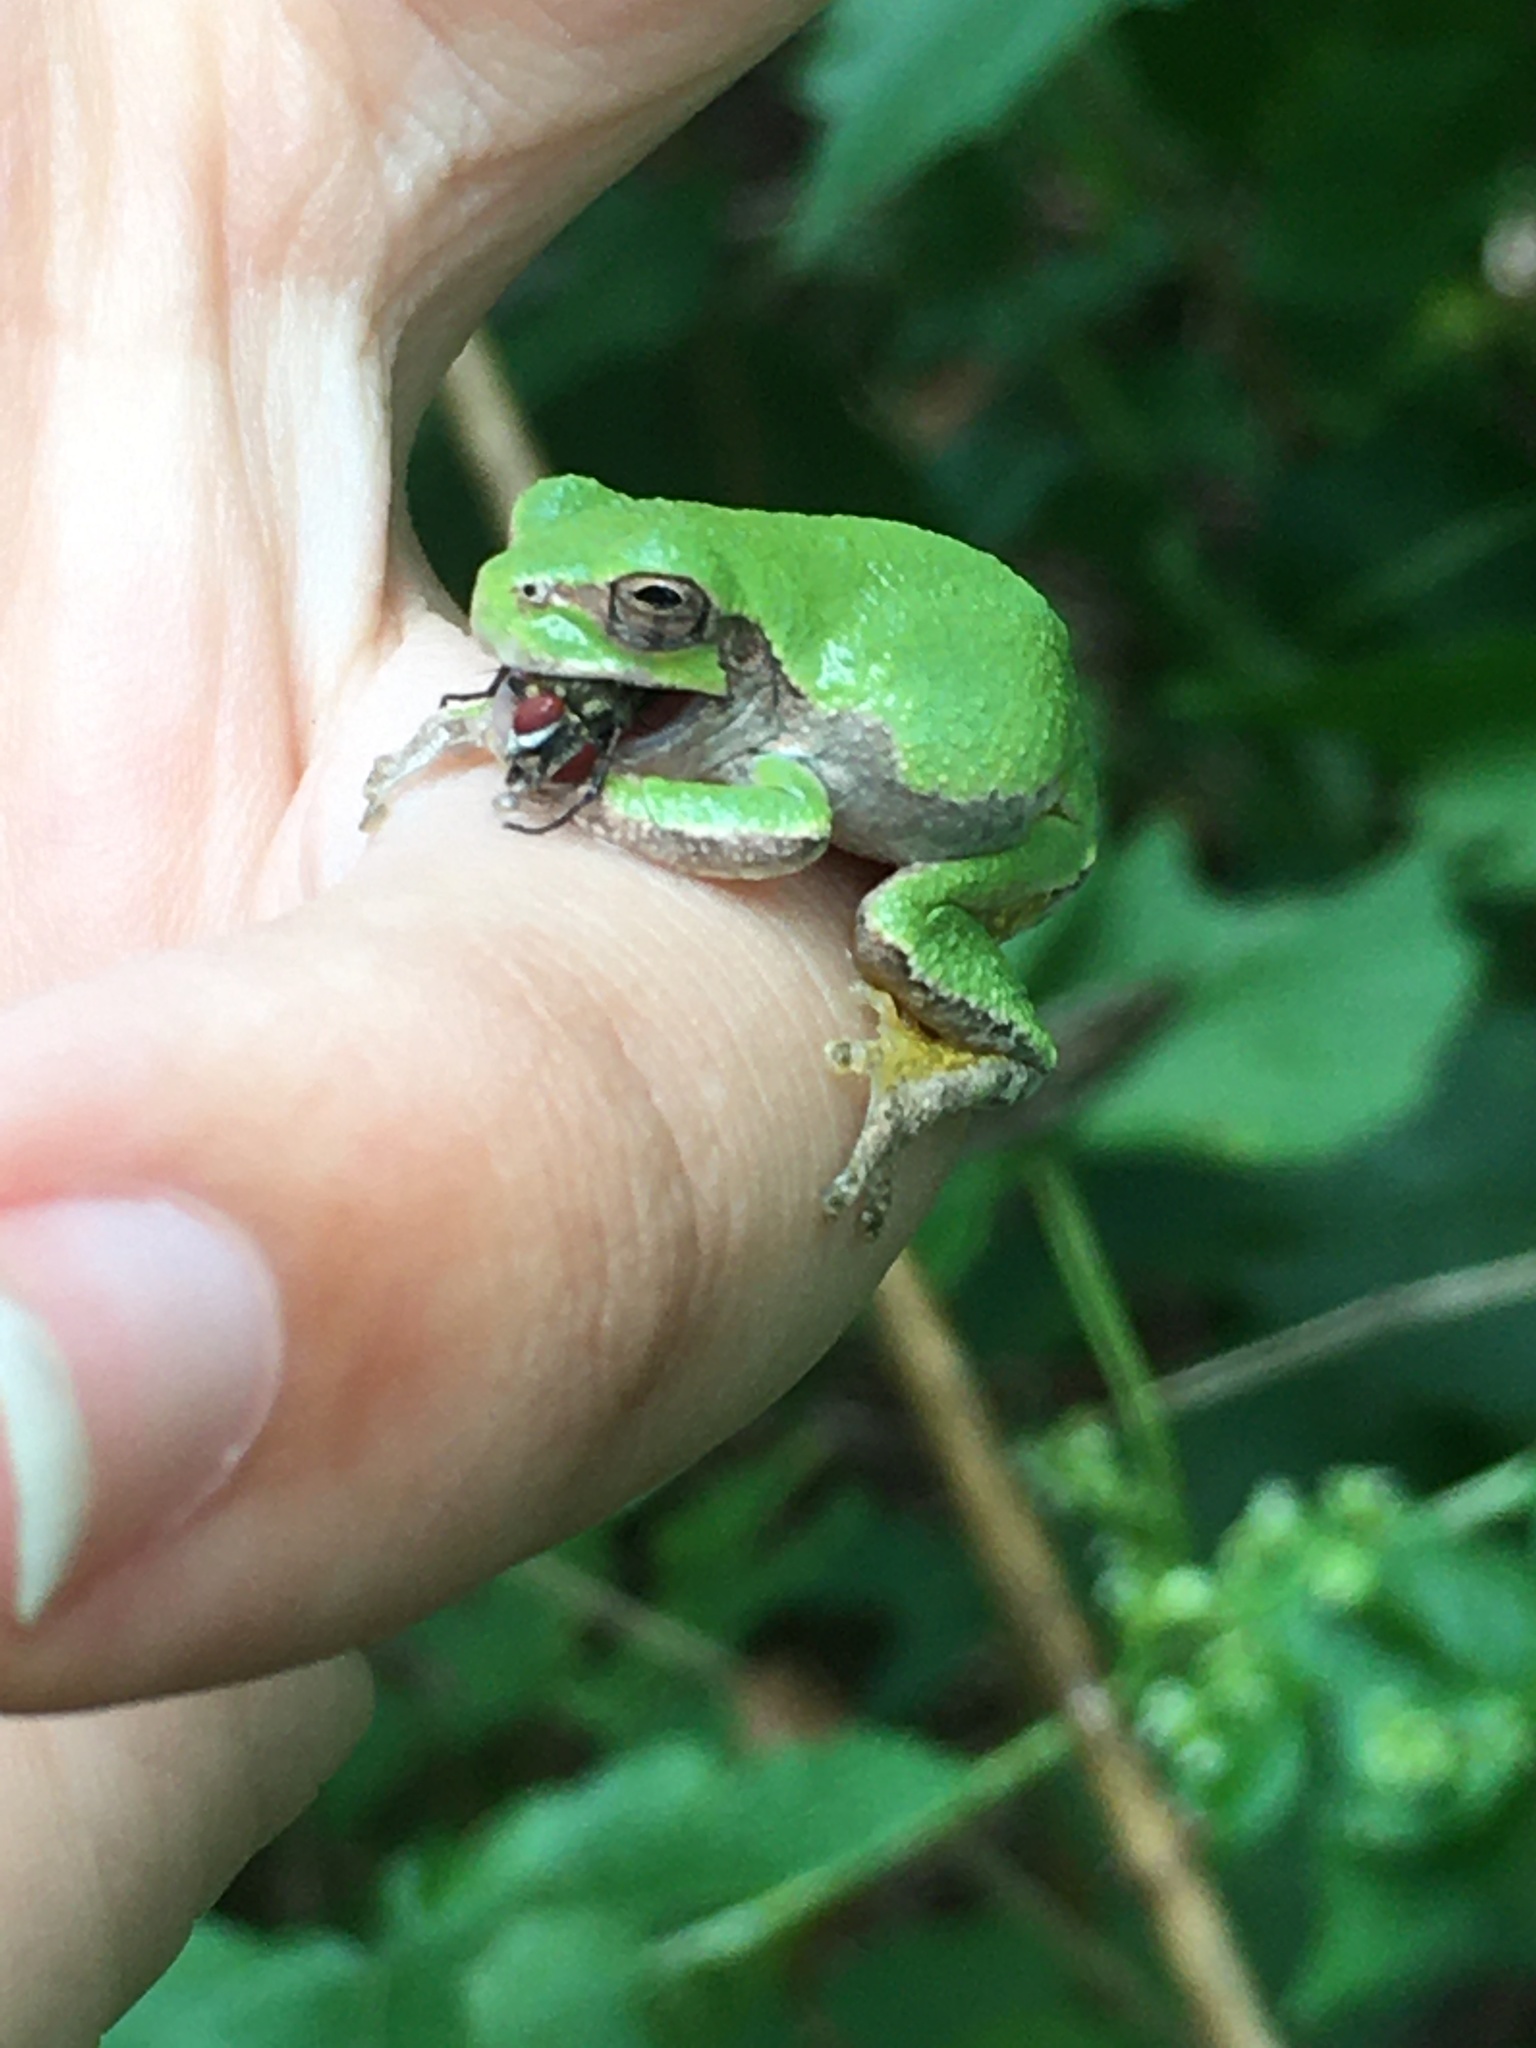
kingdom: Animalia
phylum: Chordata
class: Amphibia
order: Anura
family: Hylidae
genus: Hyla
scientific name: Hyla
